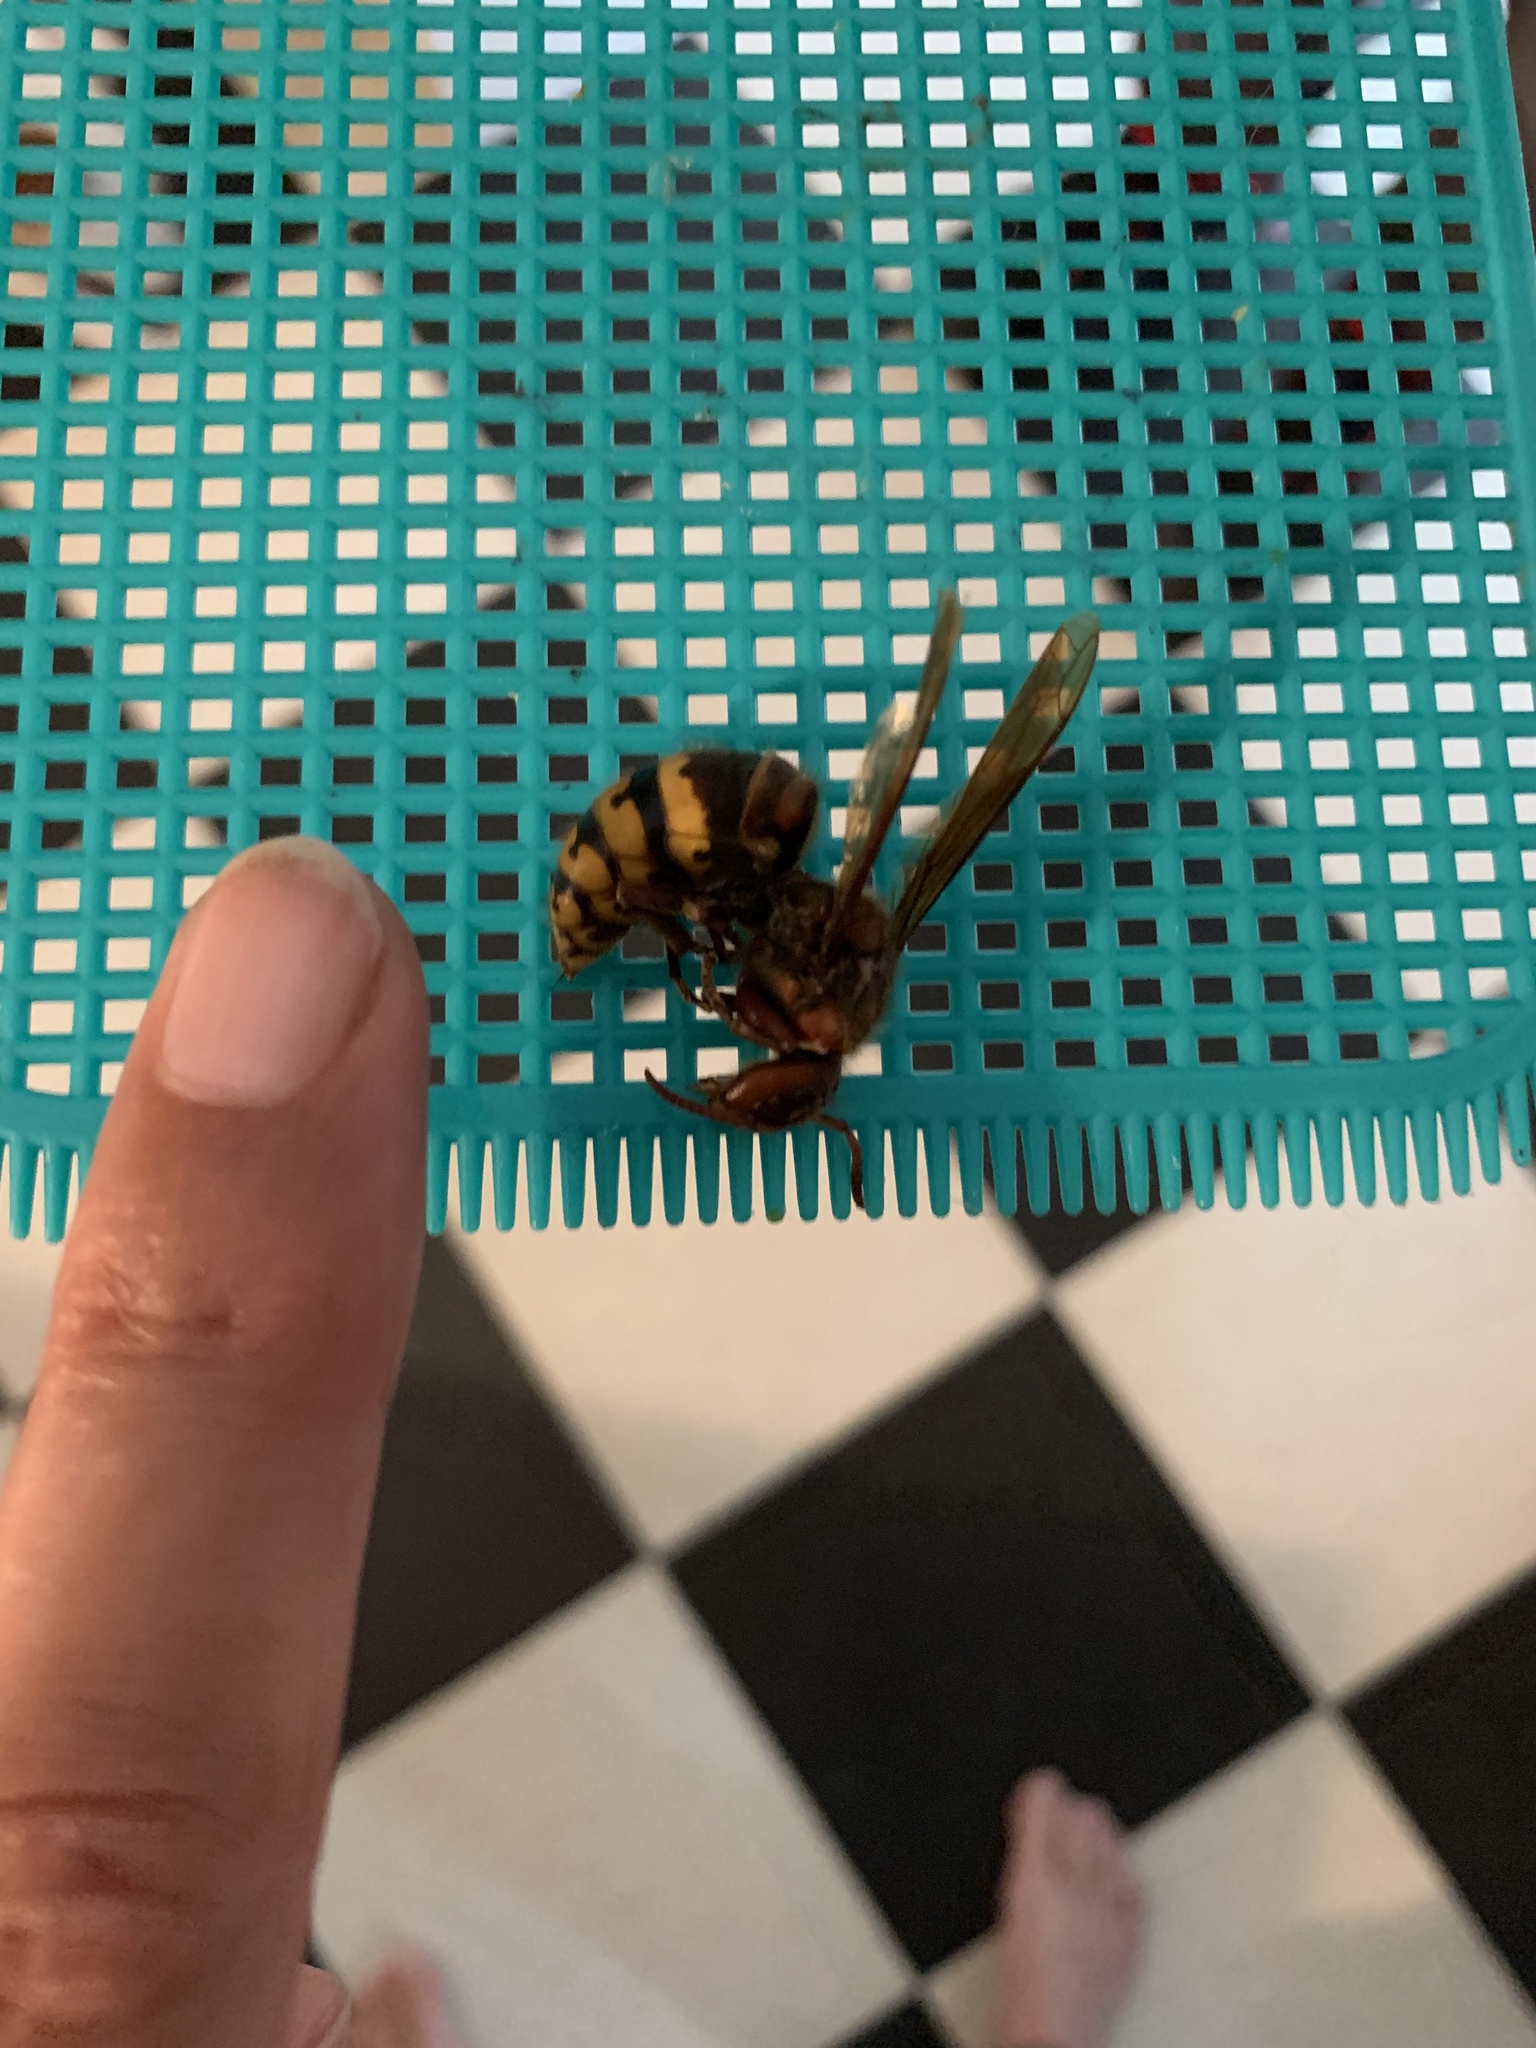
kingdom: Animalia
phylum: Arthropoda
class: Insecta
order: Hymenoptera
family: Vespidae
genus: Vespa
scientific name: Vespa crabro
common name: Hornet
